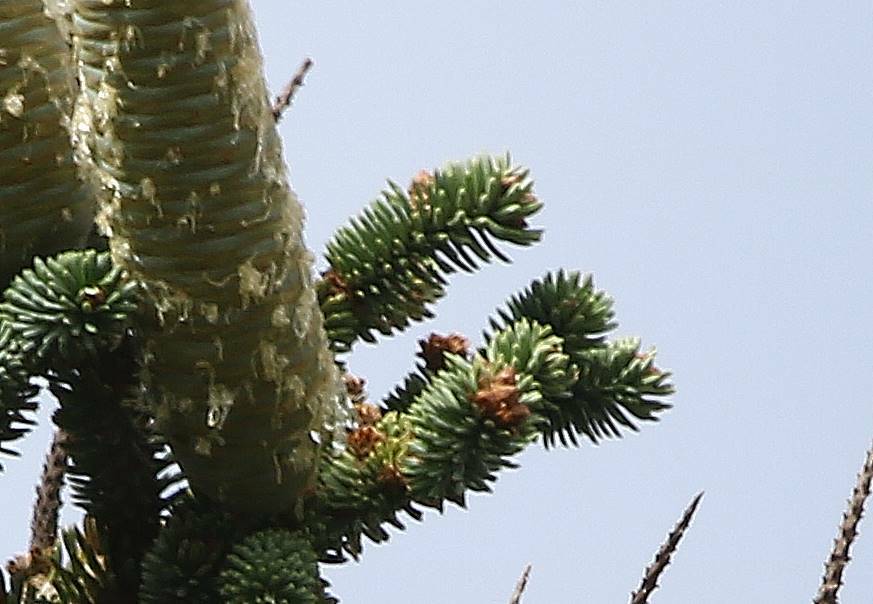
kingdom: Plantae
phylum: Tracheophyta
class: Pinopsida
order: Pinales
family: Pinaceae
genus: Abies
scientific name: Abies numidica
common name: Algerian fir
